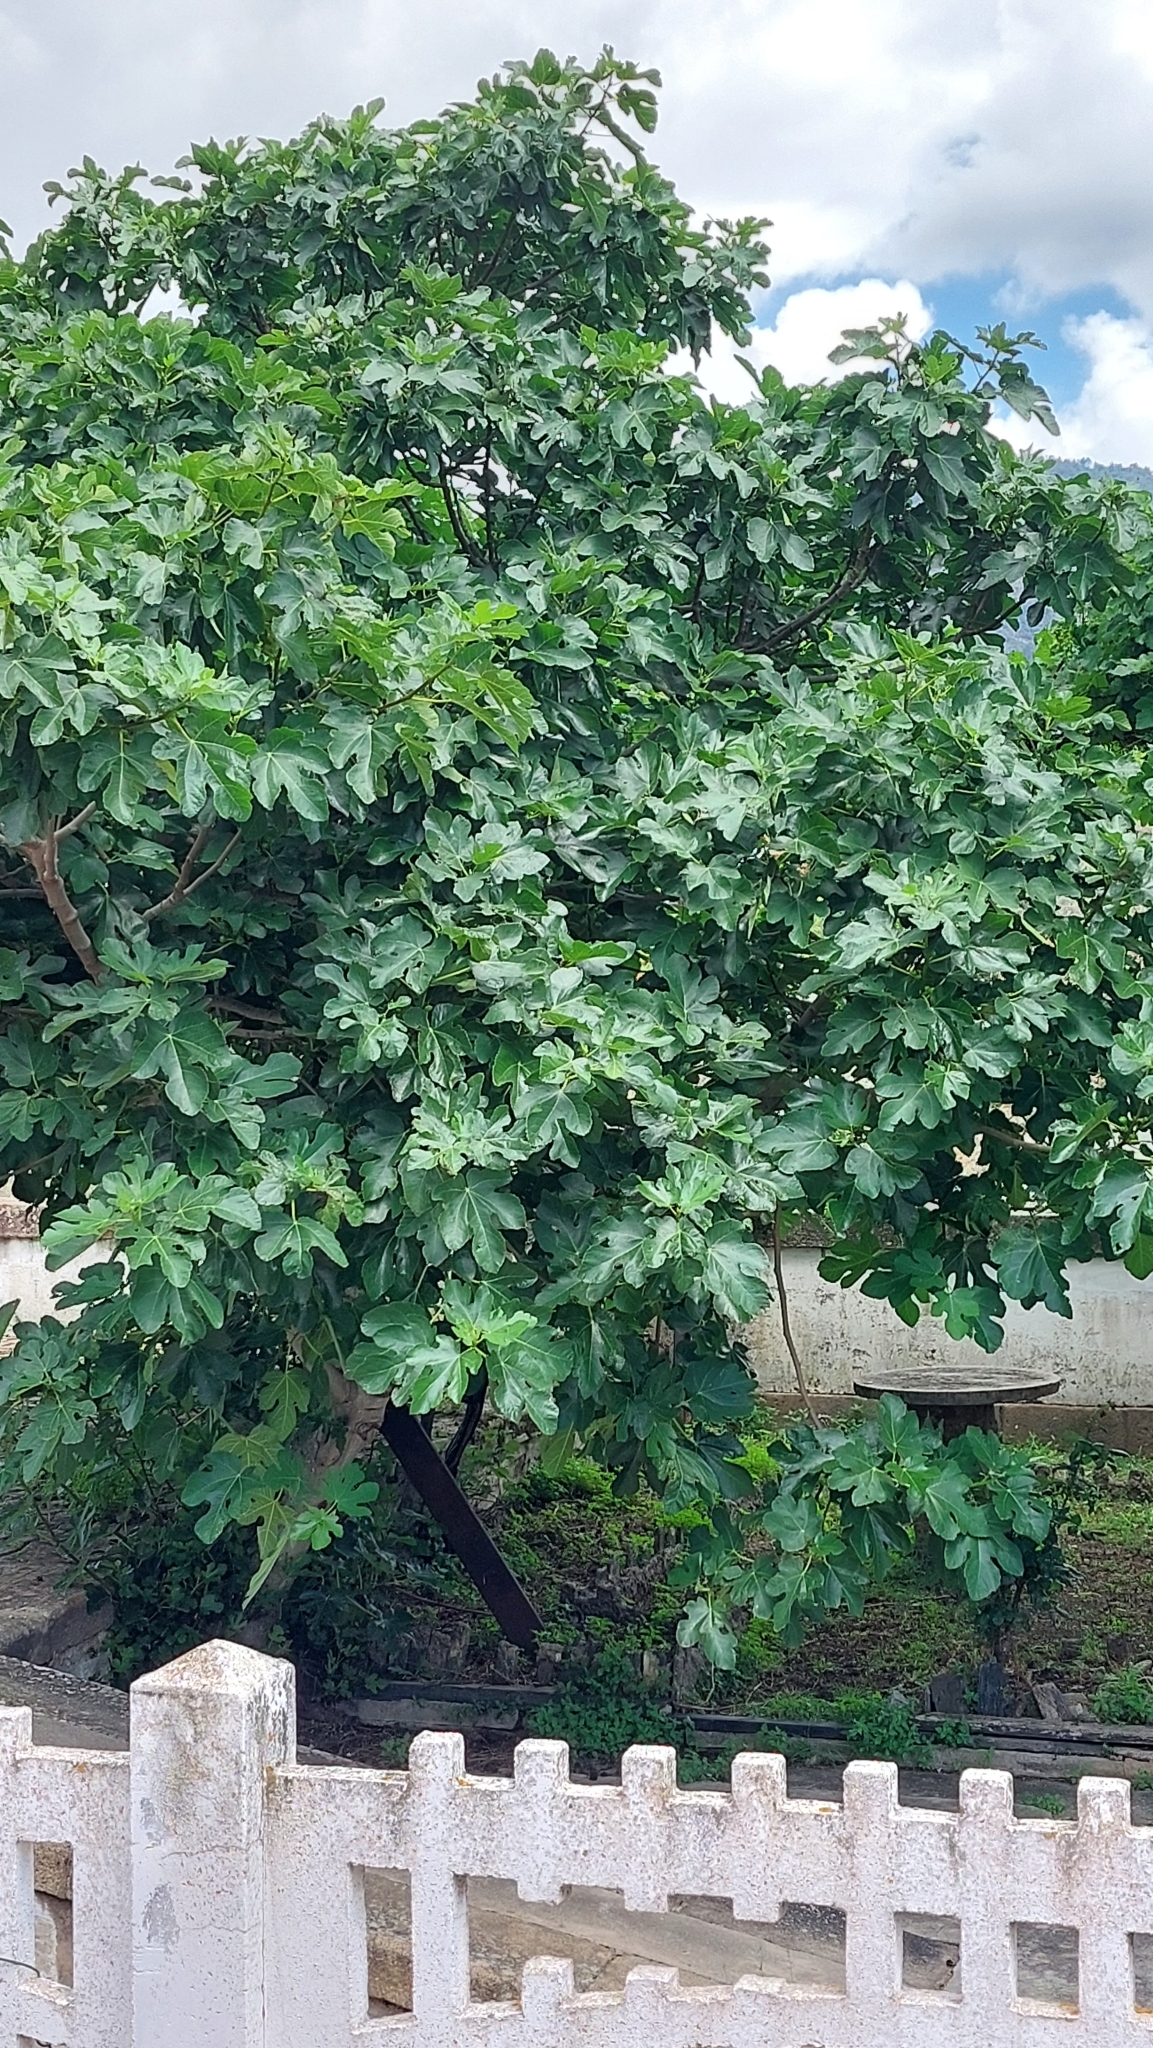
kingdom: Plantae
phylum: Tracheophyta
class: Magnoliopsida
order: Rosales
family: Moraceae
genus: Ficus
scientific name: Ficus carica
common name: Fig
